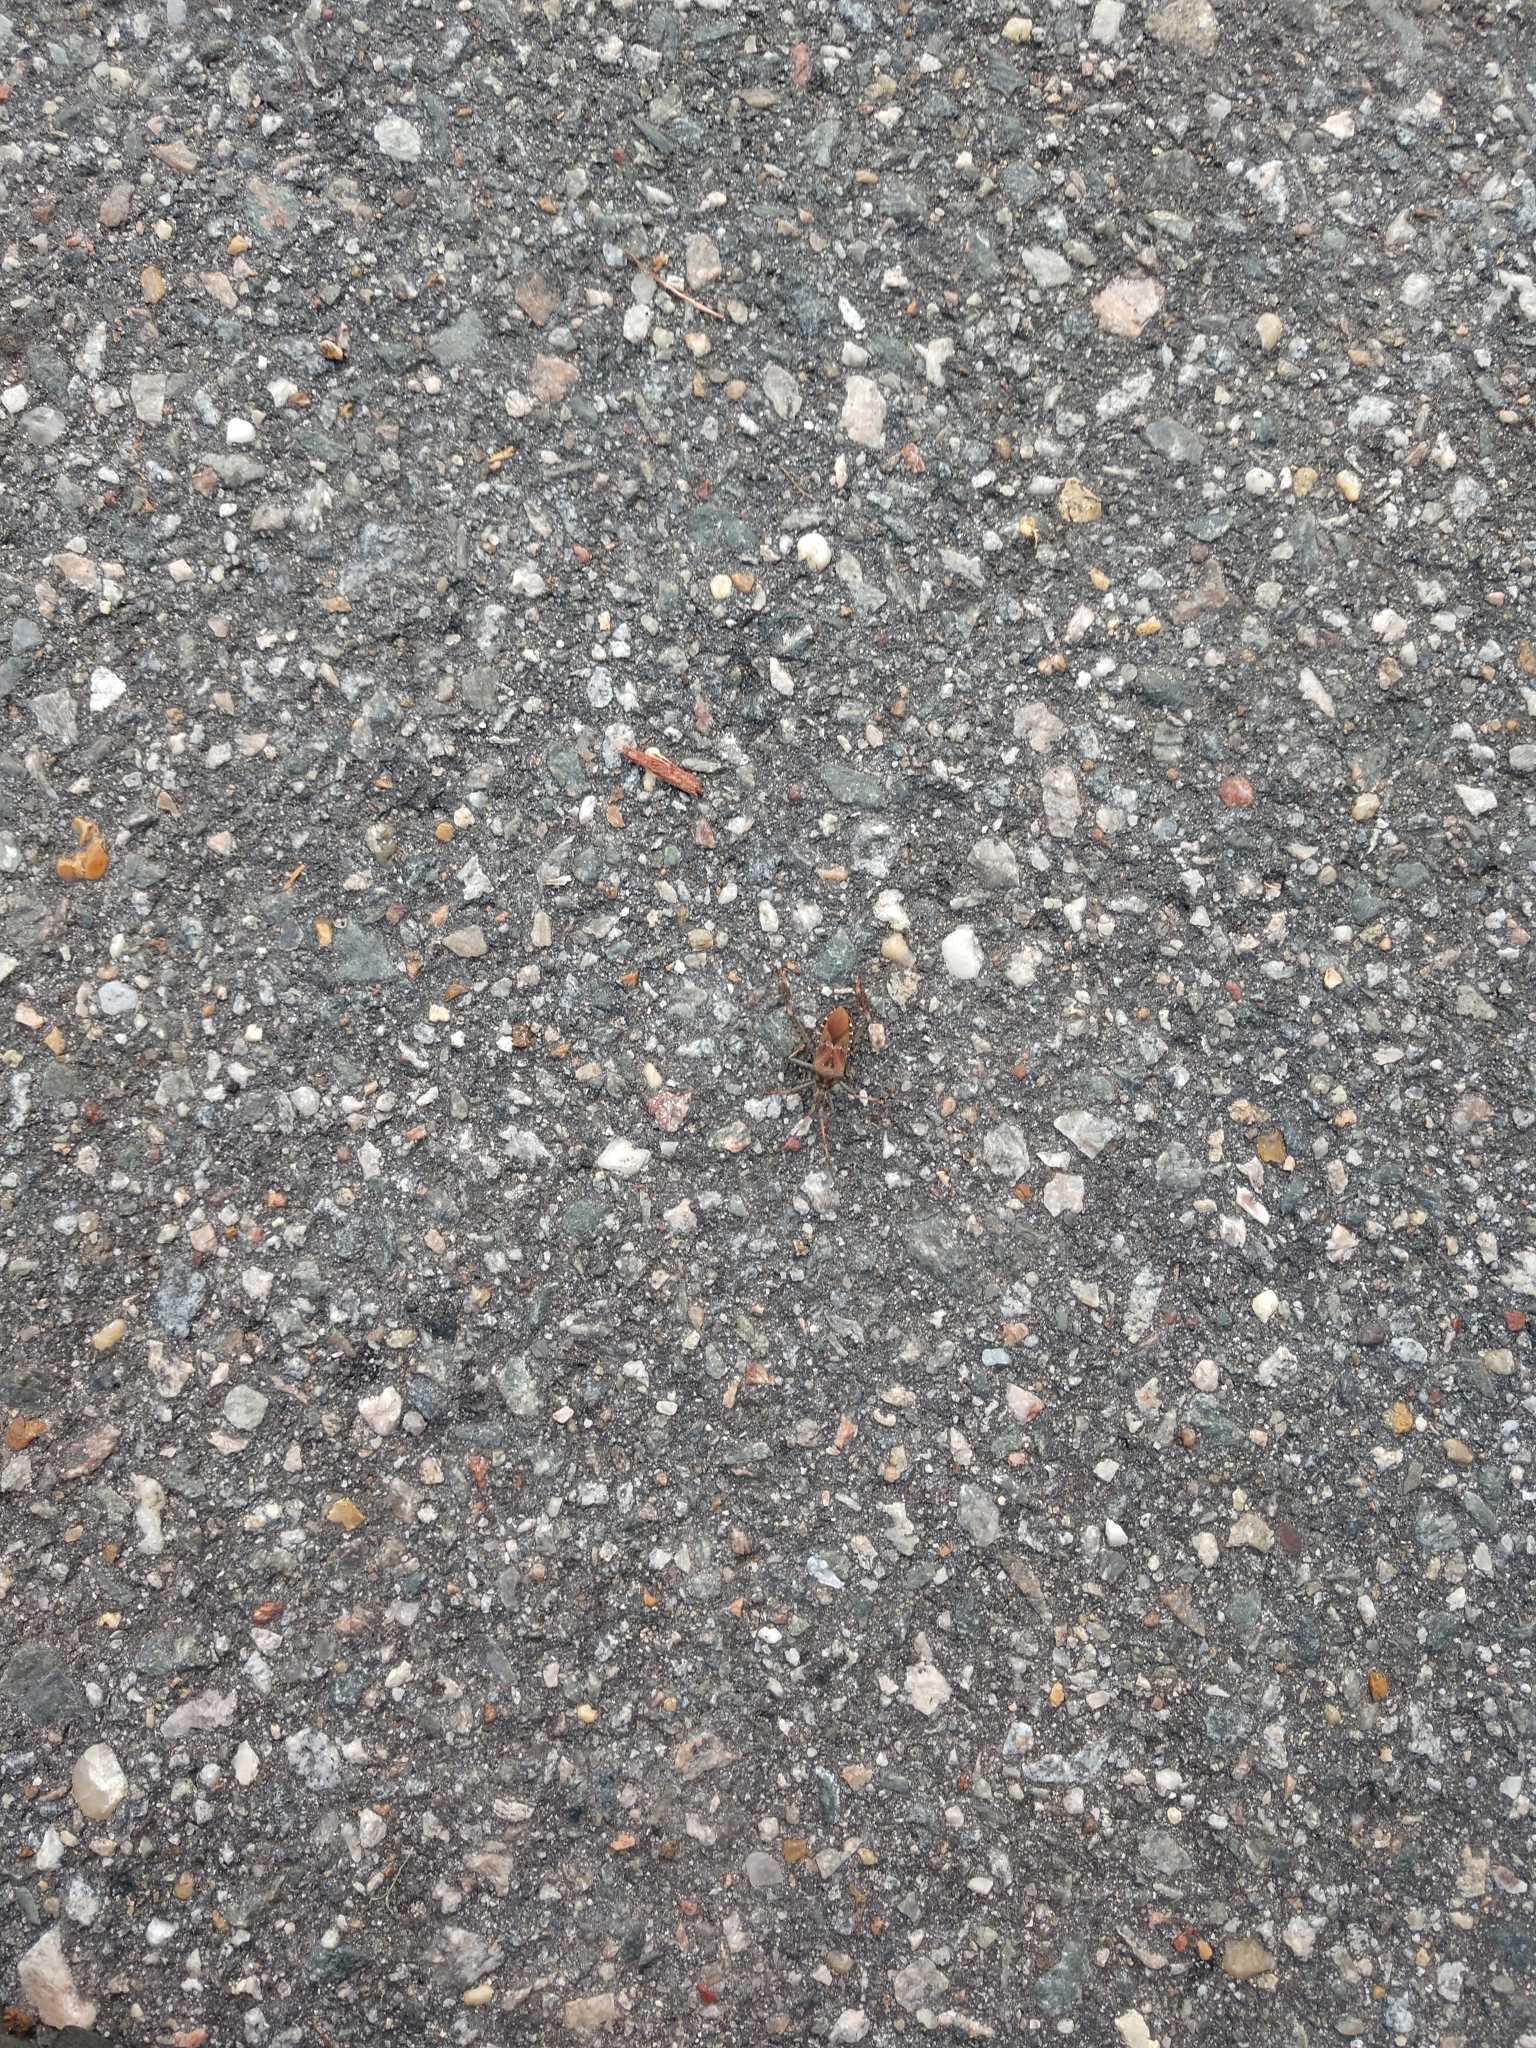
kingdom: Animalia
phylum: Arthropoda
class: Insecta
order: Hemiptera
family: Coreidae
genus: Leptoglossus
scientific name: Leptoglossus corculus
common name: Southern pine seed bug
